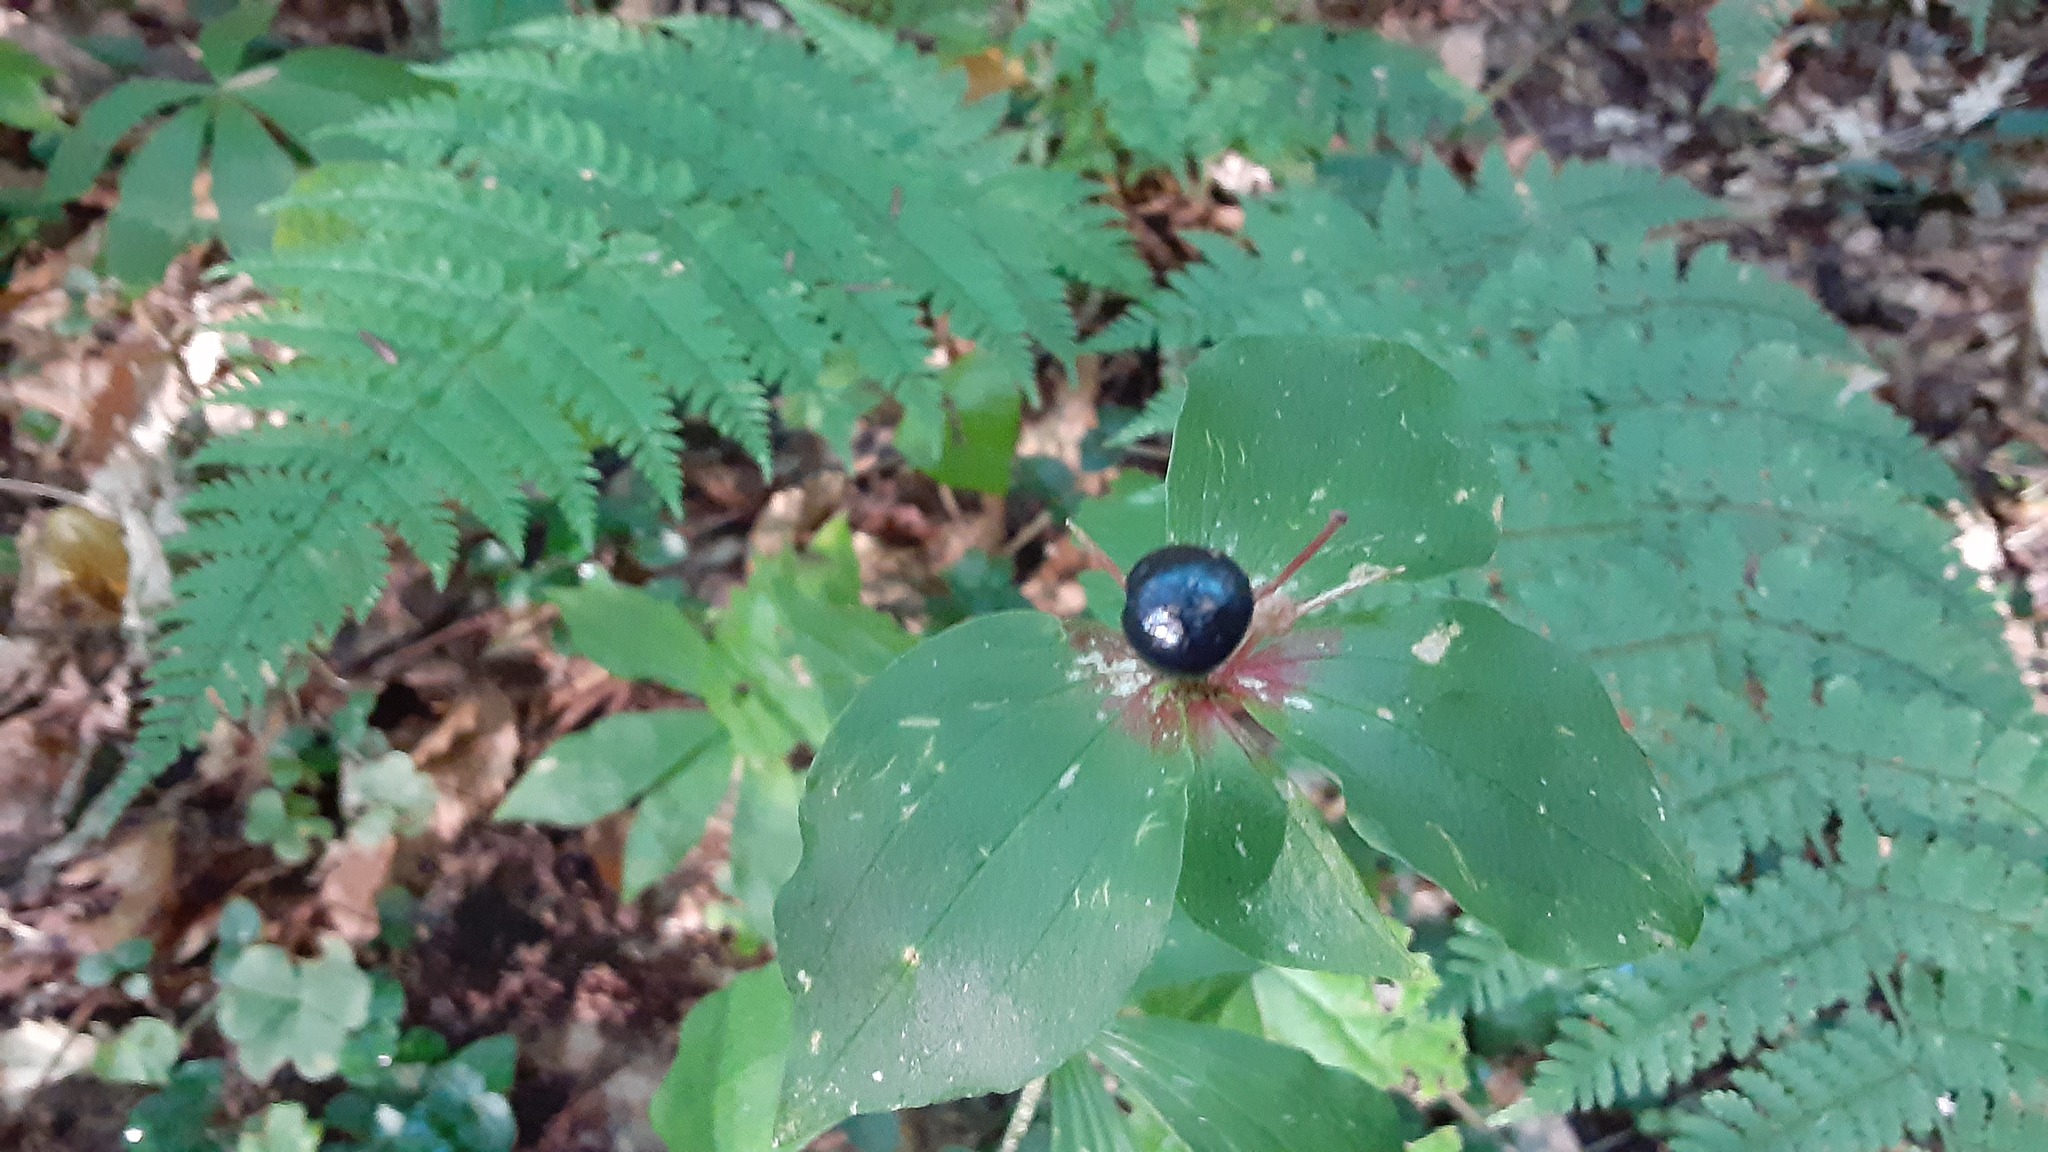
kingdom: Plantae
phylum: Tracheophyta
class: Liliopsida
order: Liliales
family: Liliaceae
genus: Medeola
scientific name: Medeola virginiana
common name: Indian cucumber-root
